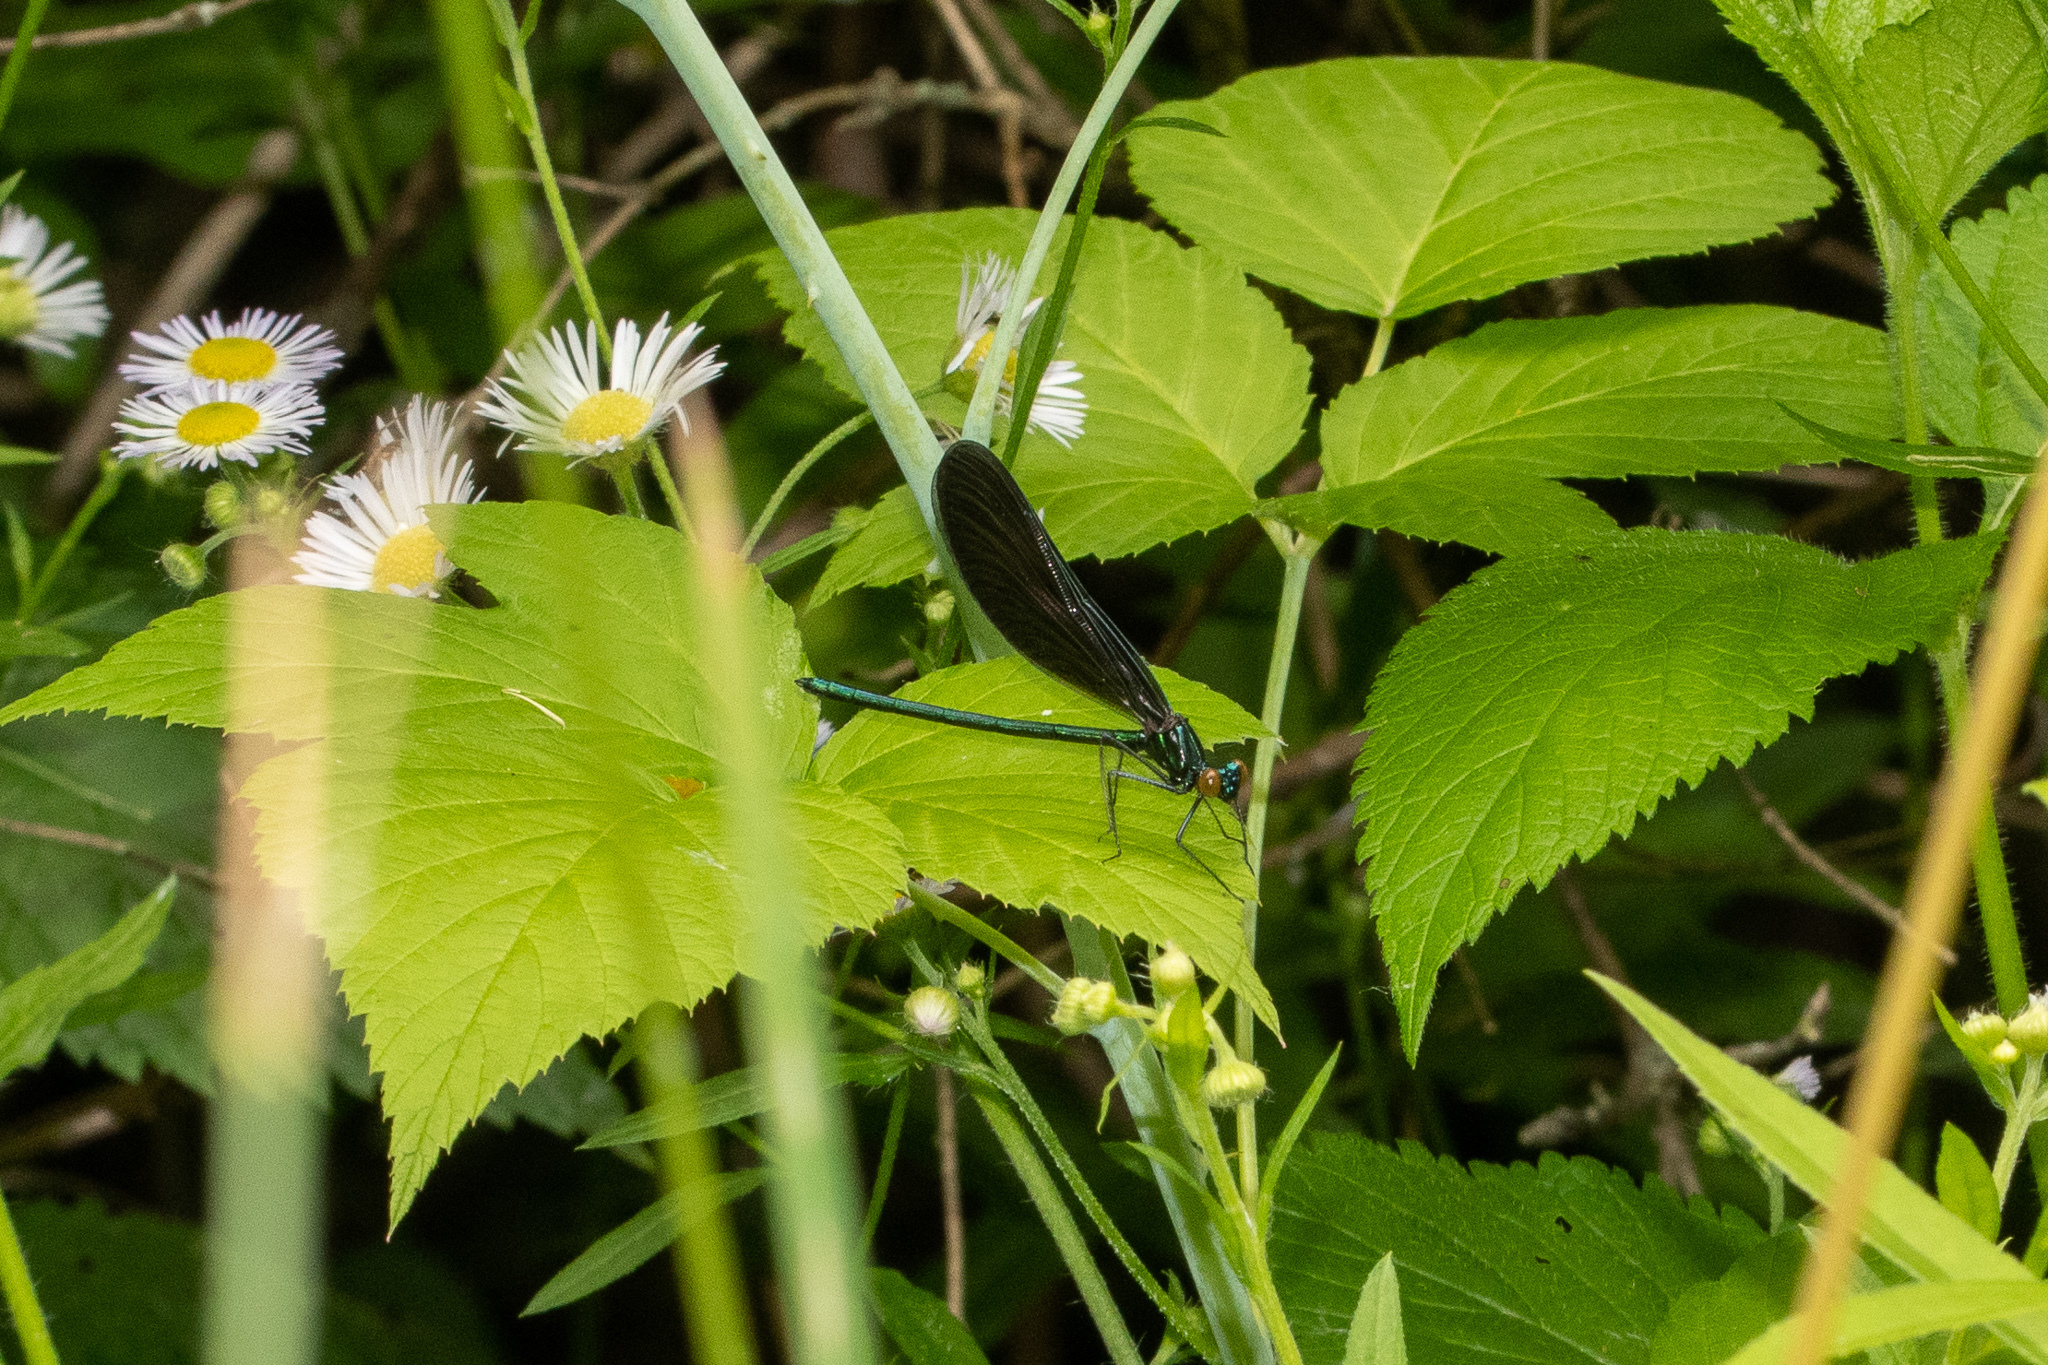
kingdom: Animalia
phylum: Arthropoda
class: Insecta
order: Odonata
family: Calopterygidae
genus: Calopteryx
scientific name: Calopteryx maculata
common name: Ebony jewelwing
